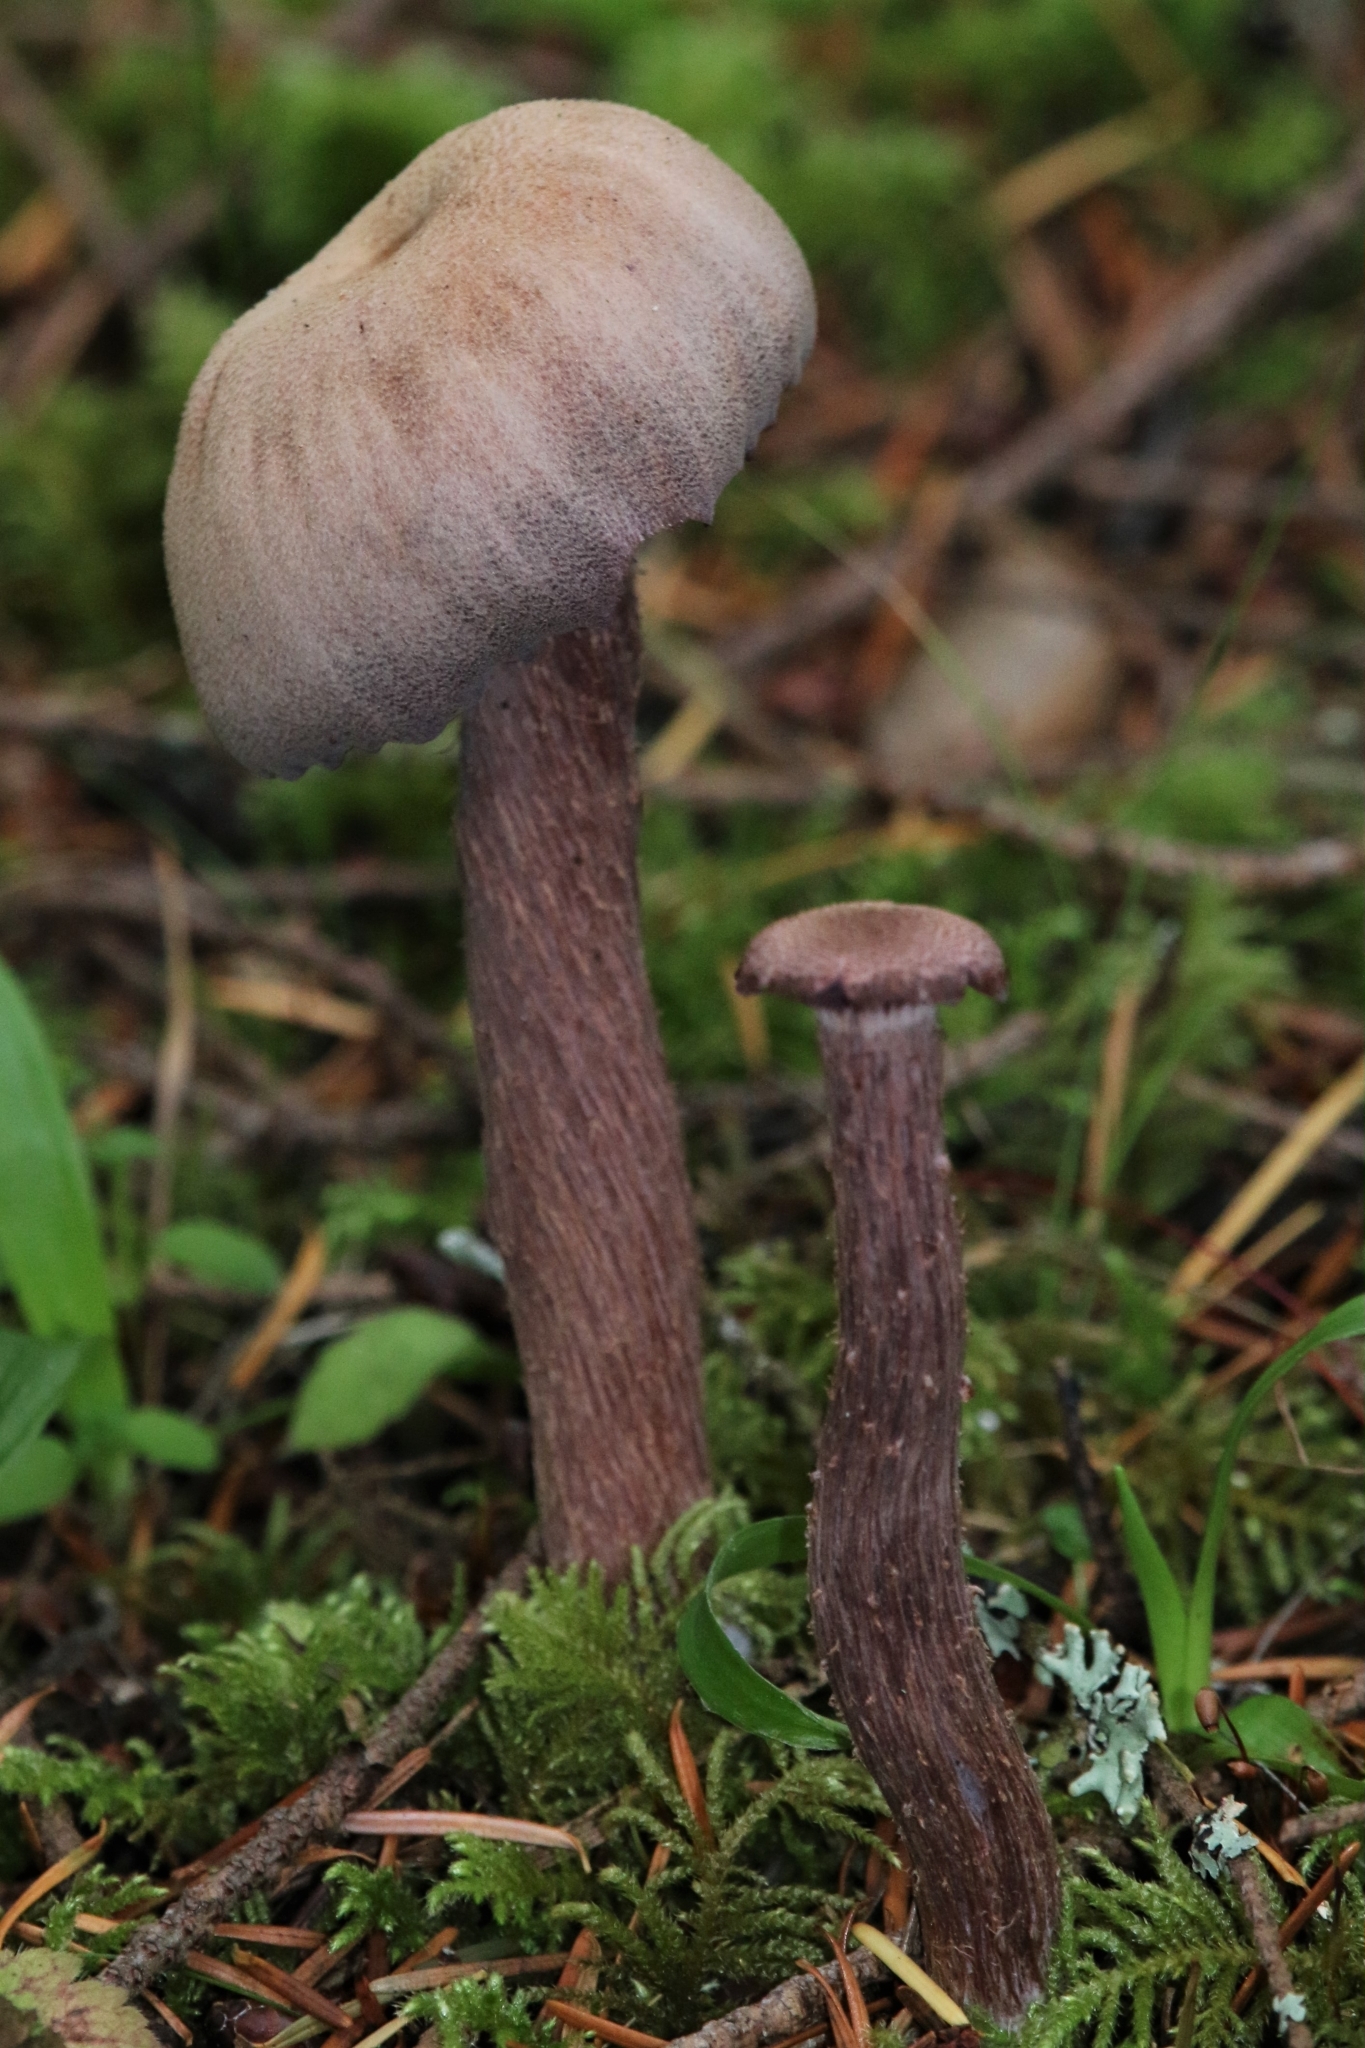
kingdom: Fungi
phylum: Basidiomycota
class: Agaricomycetes
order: Agaricales
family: Hydnangiaceae
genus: Laccaria
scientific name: Laccaria amethysteo-occidentalis
